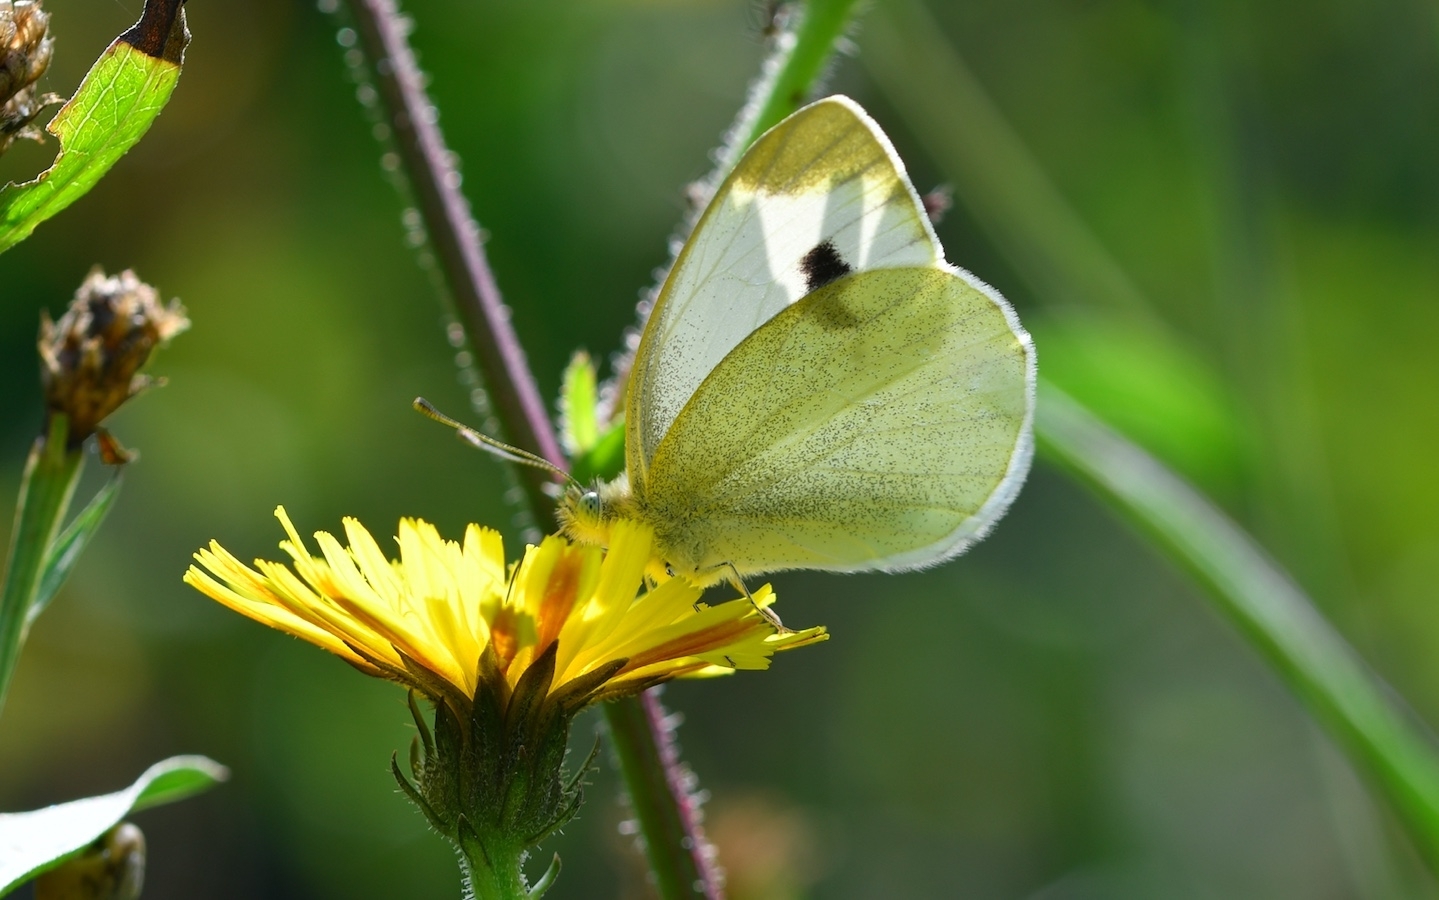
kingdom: Animalia
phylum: Arthropoda
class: Insecta
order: Lepidoptera
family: Pieridae
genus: Pieris
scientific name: Pieris mannii
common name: Southern small white
